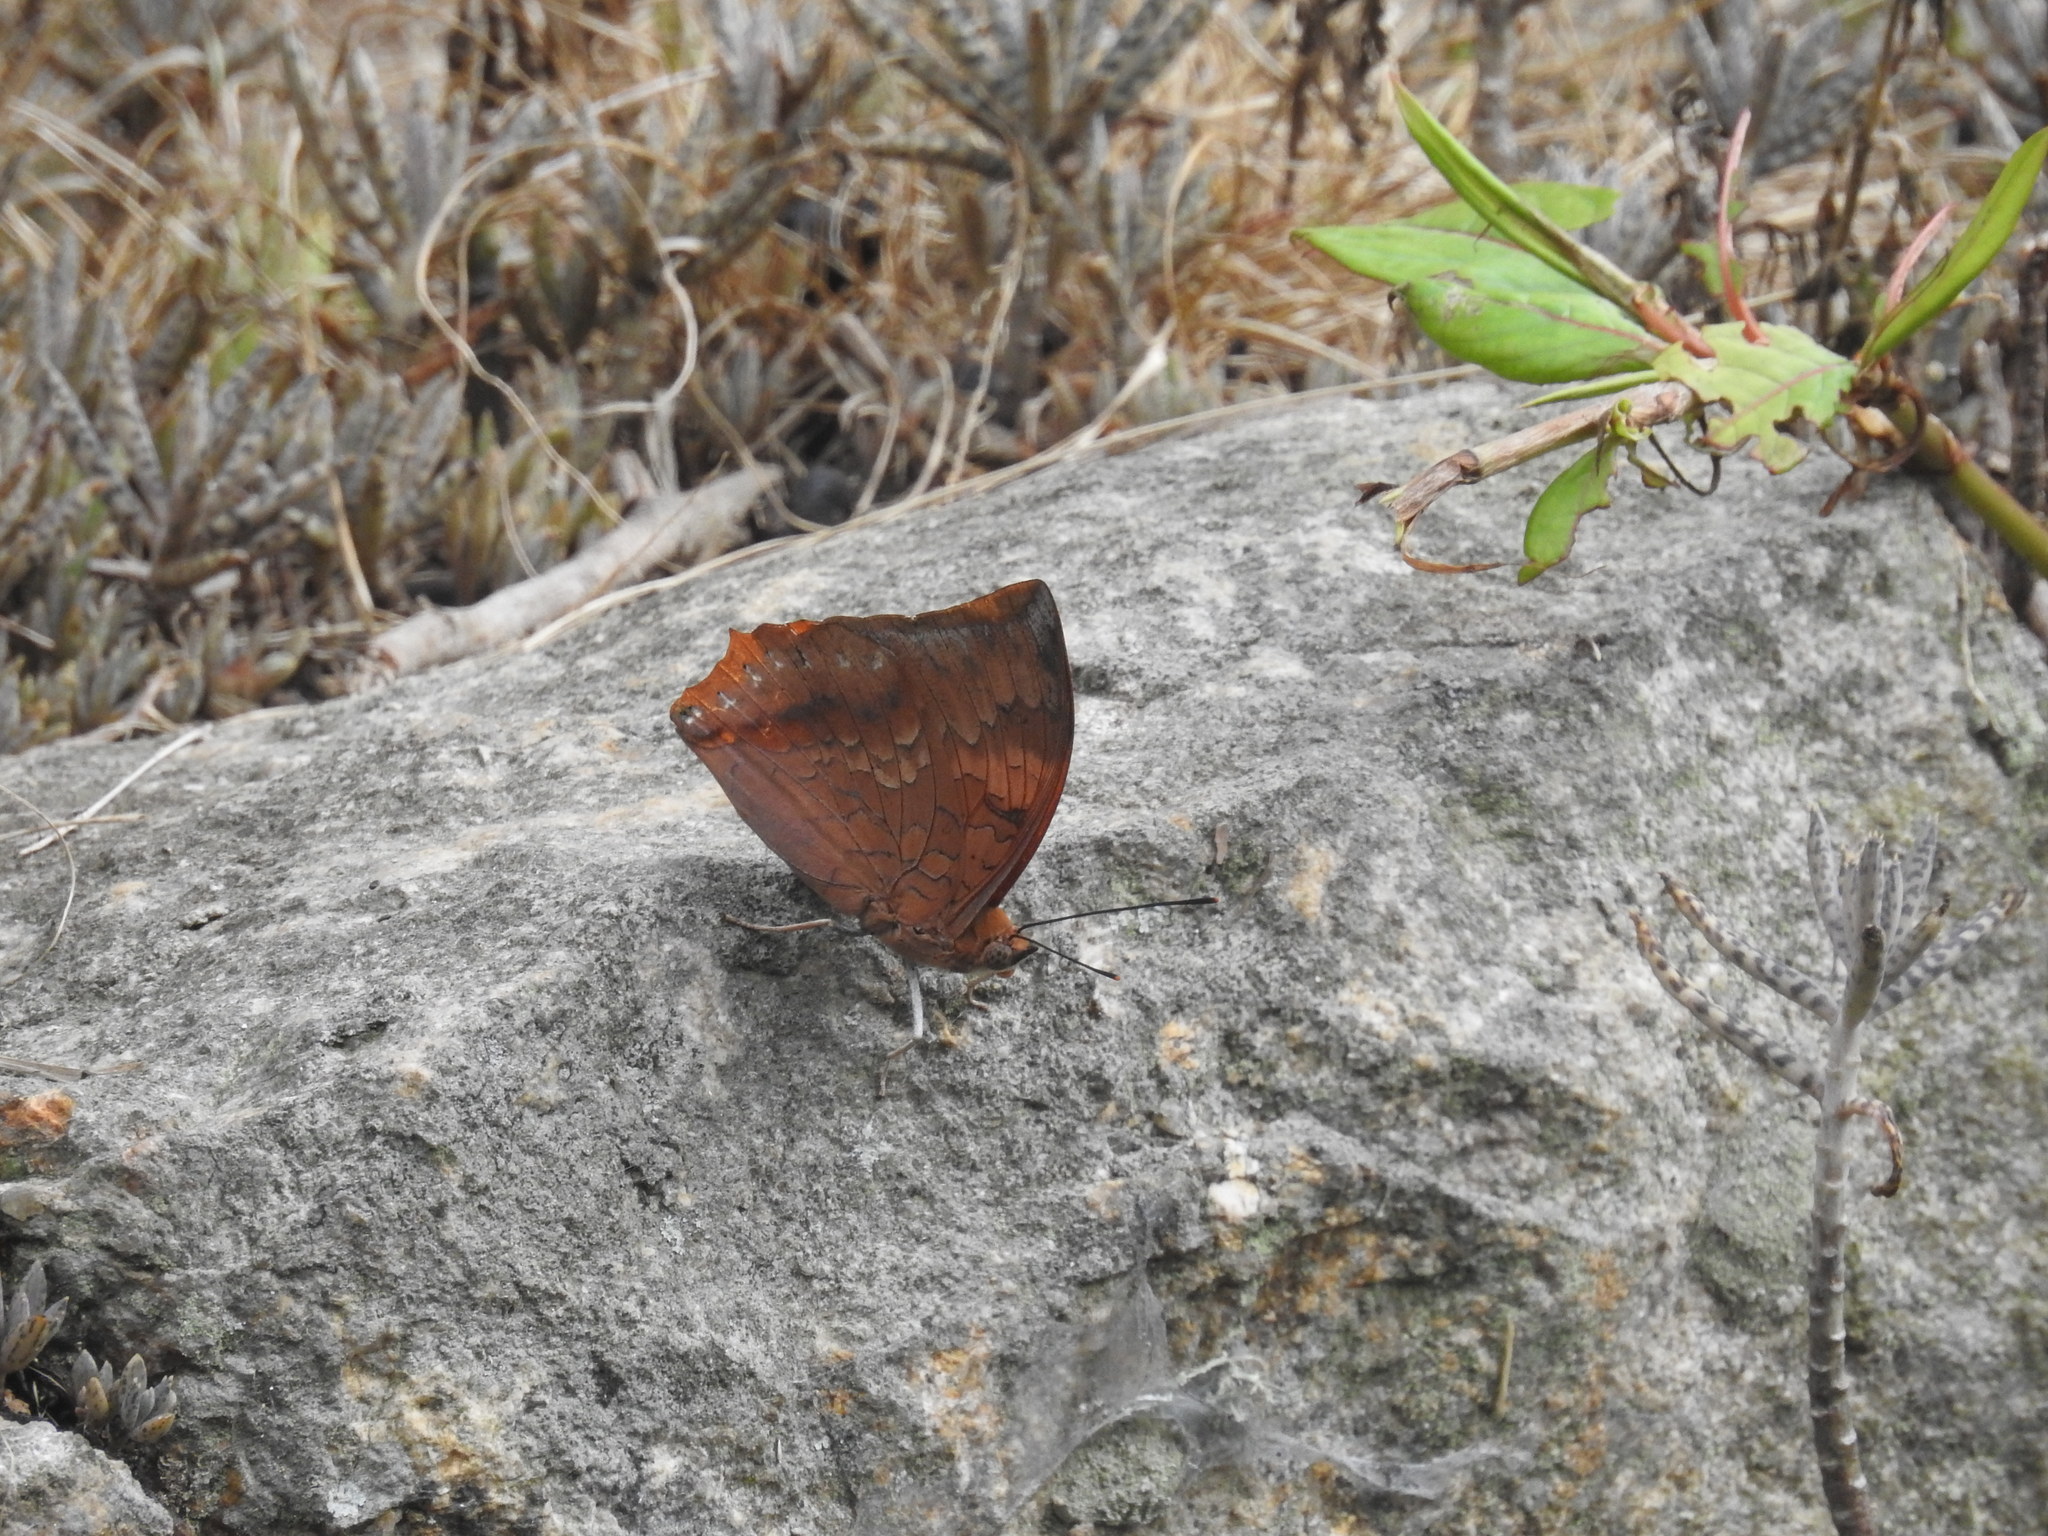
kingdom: Animalia
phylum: Arthropoda
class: Insecta
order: Lepidoptera
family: Nymphalidae
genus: Charaxes
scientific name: Charaxes psaphon
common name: Plain tawny rajah
